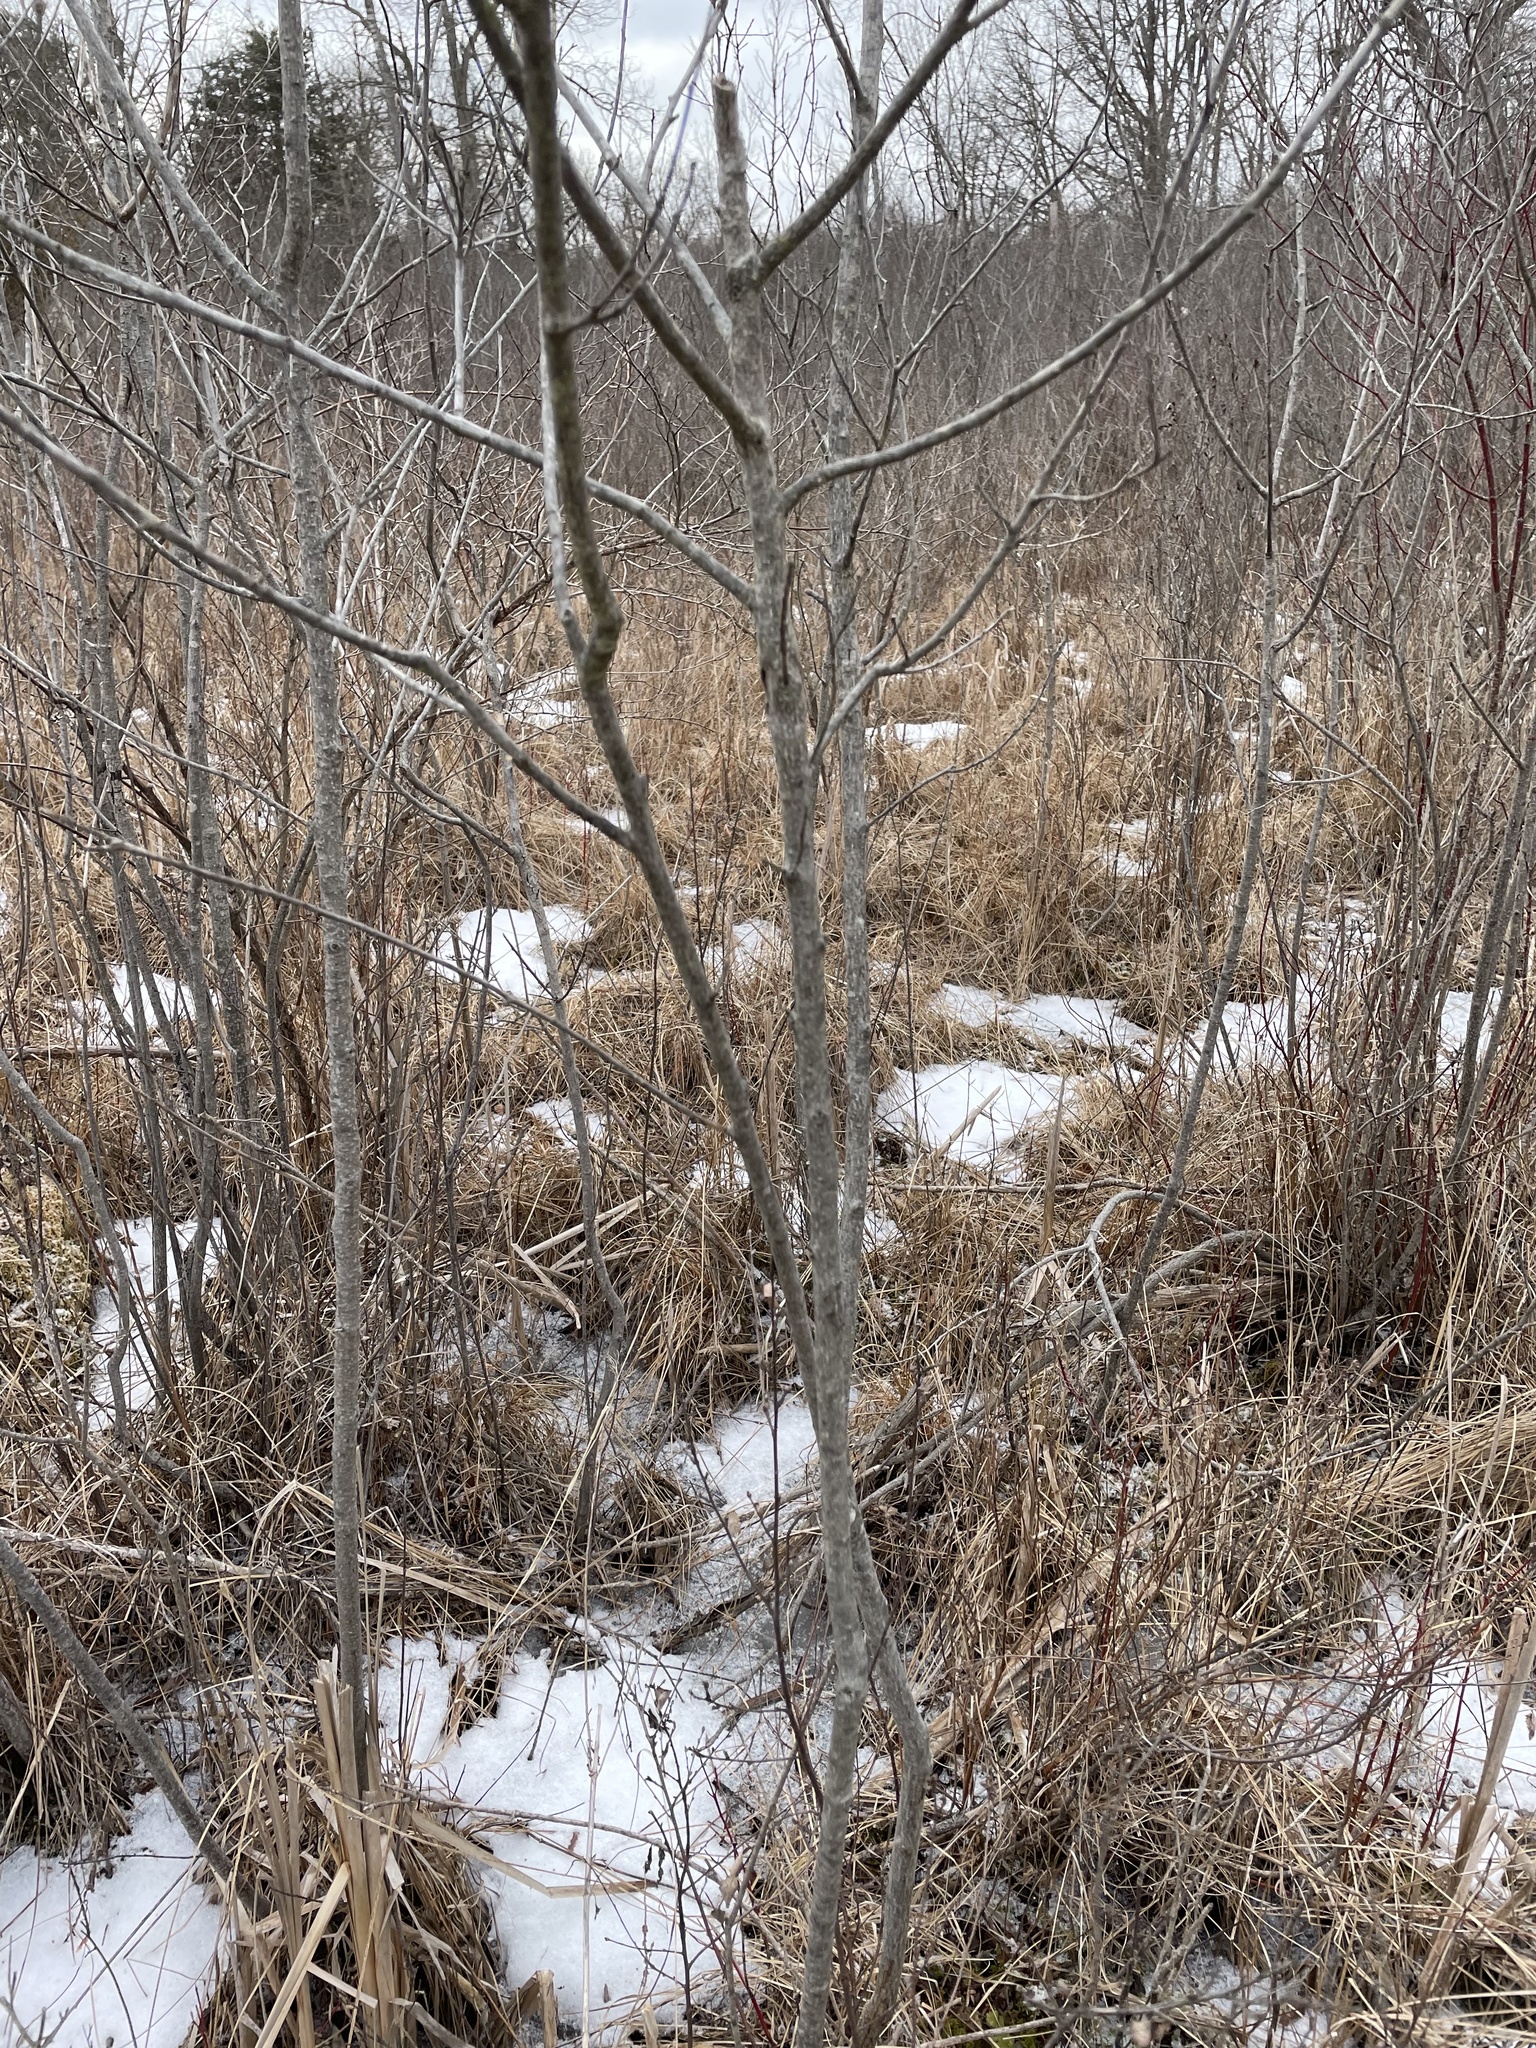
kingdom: Plantae
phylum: Tracheophyta
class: Magnoliopsida
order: Rosales
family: Rhamnaceae
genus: Frangula
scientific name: Frangula alnus
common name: Alder buckthorn
